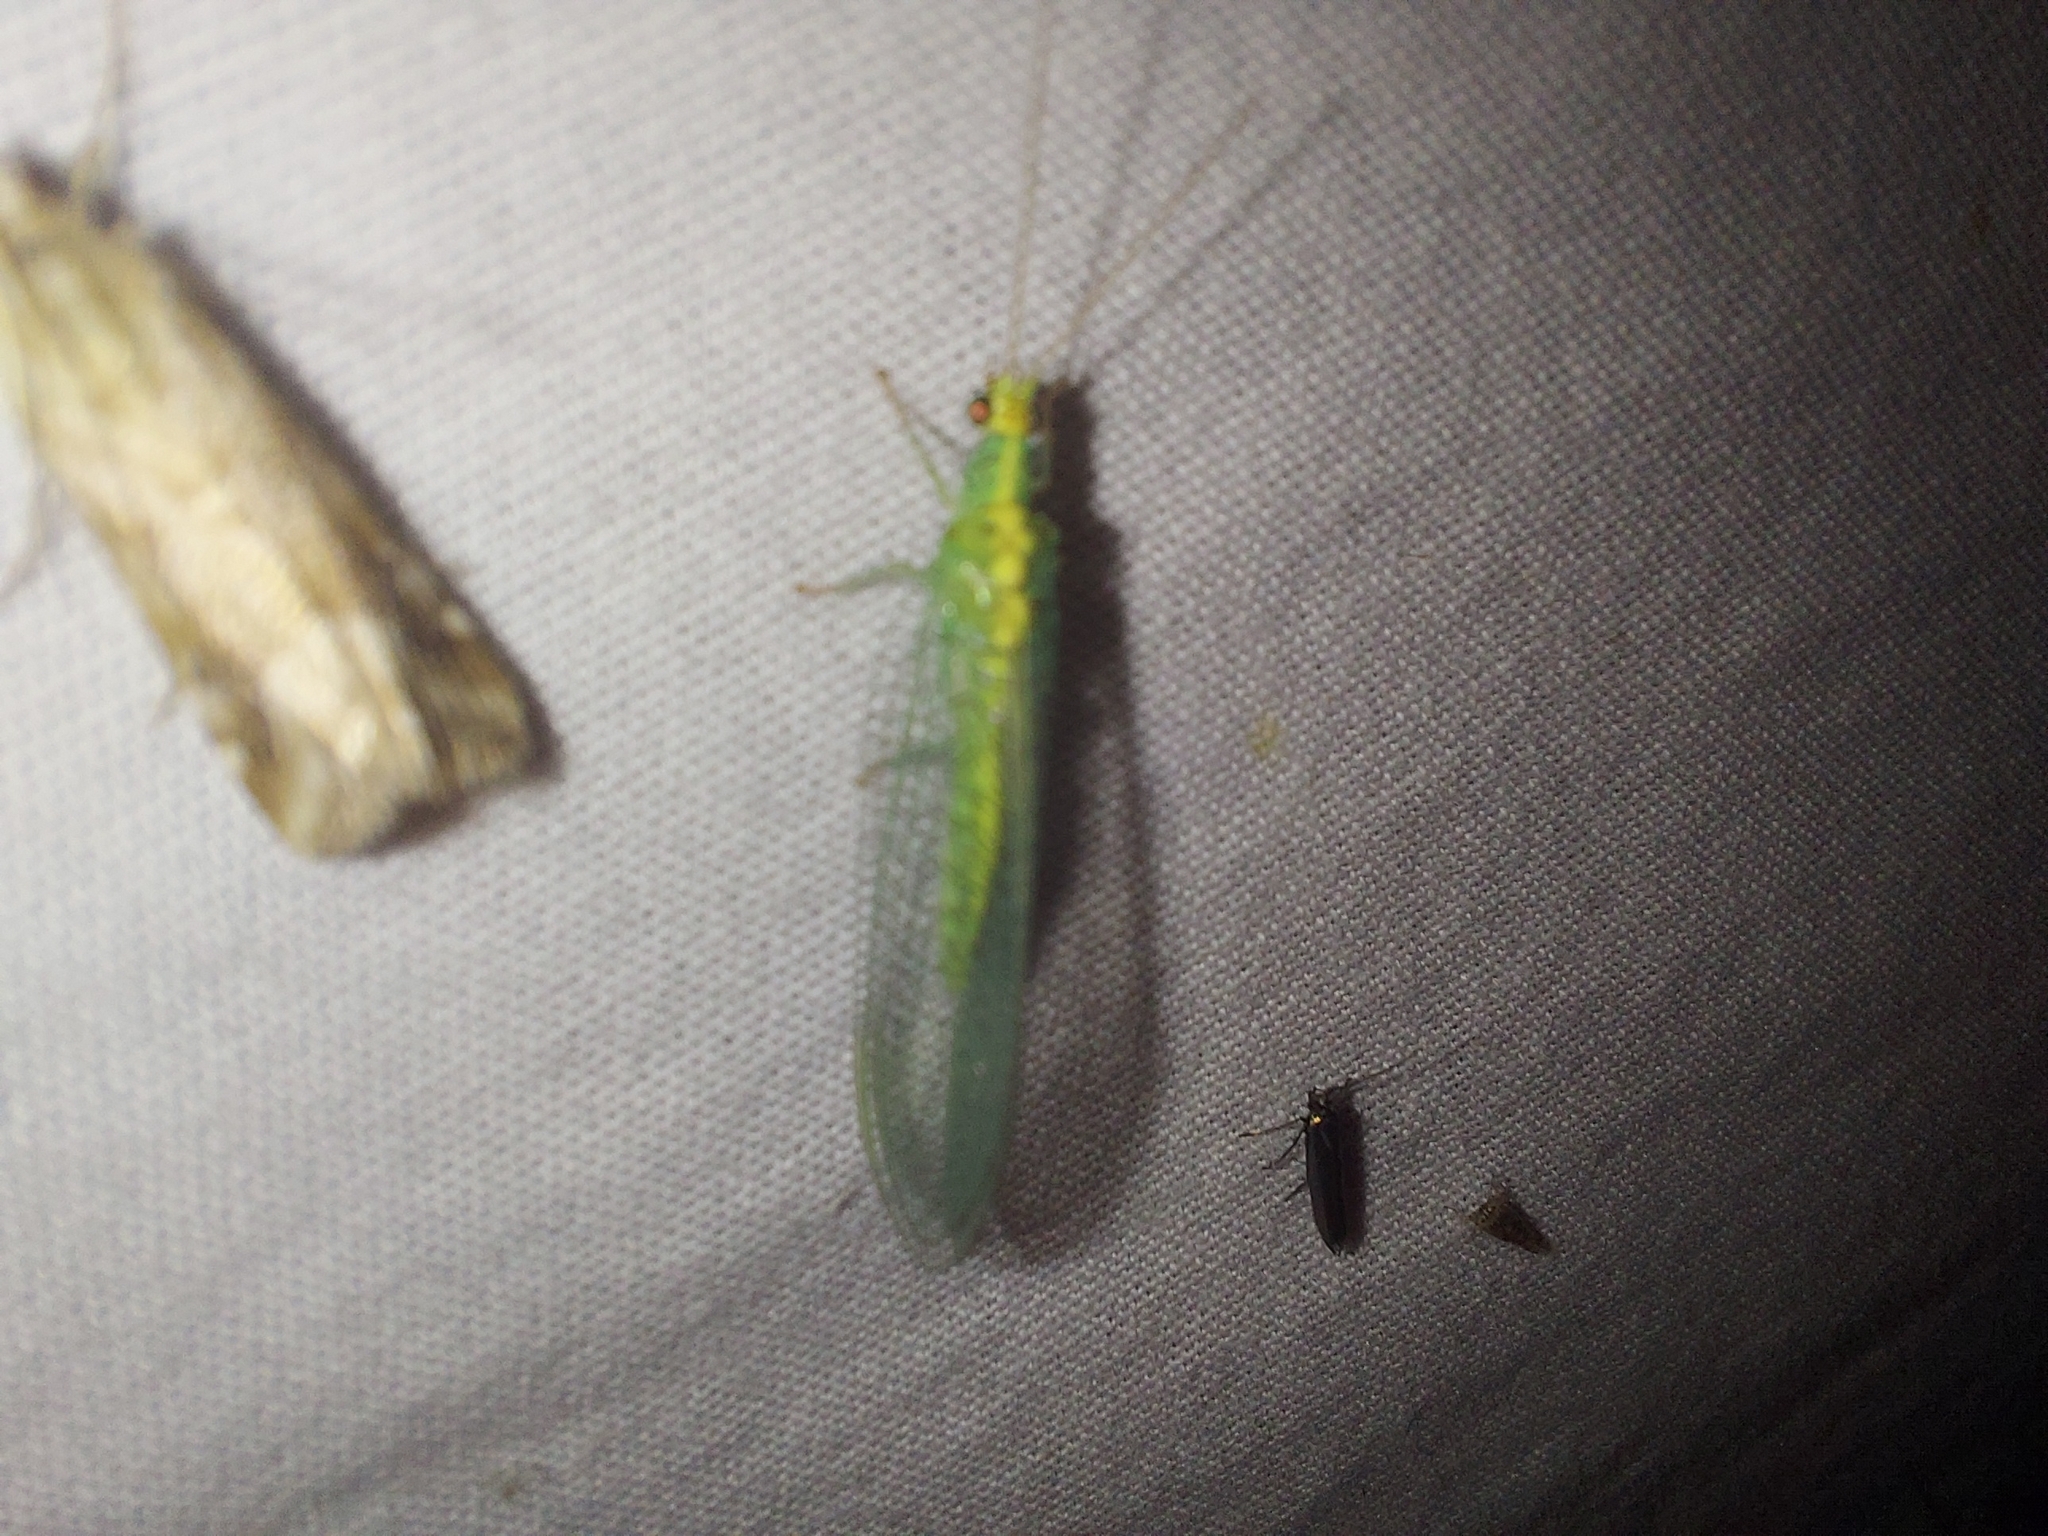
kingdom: Animalia
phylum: Arthropoda
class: Insecta
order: Neuroptera
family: Chrysopidae
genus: Pseudomallada
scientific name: Pseudomallada edwardsi
